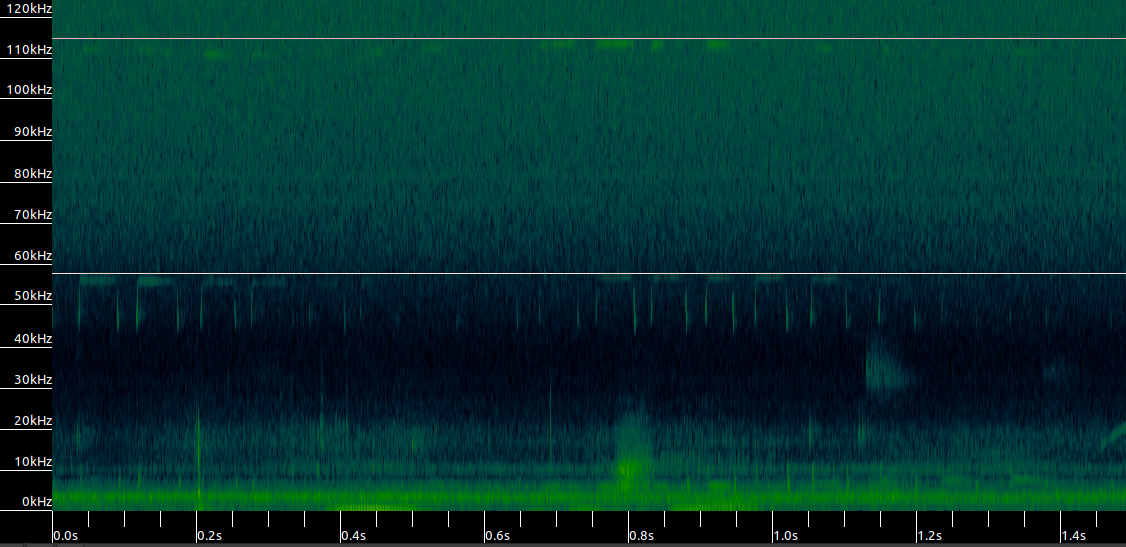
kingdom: Animalia
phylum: Chordata
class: Mammalia
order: Chiroptera
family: Rhinolophidae
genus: Rhinolophus
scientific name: Rhinolophus hipposideros
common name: Lesser horseshoe bat
